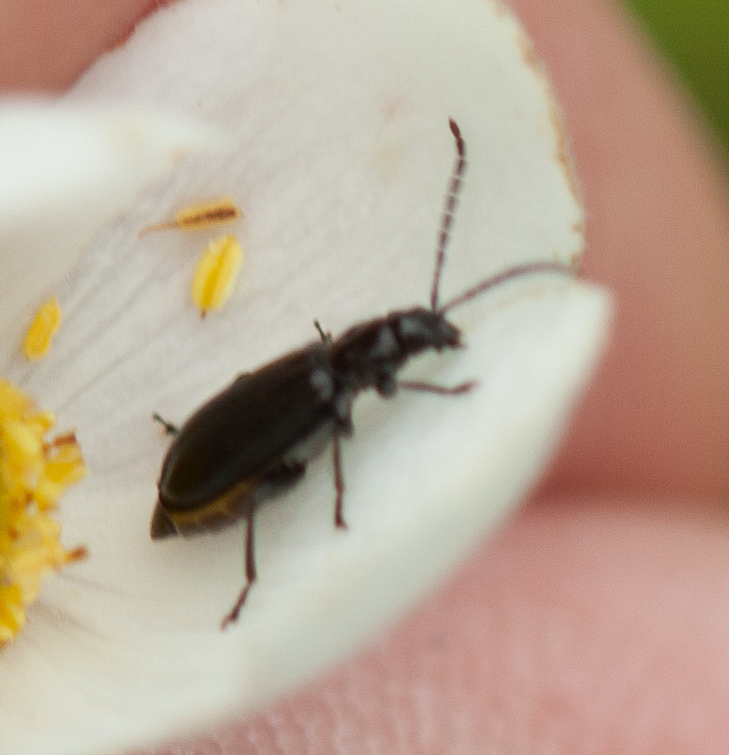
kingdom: Animalia
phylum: Arthropoda
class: Insecta
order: Coleoptera
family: Chrysomelidae
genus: Diabrotica
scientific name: Diabrotica cristata
